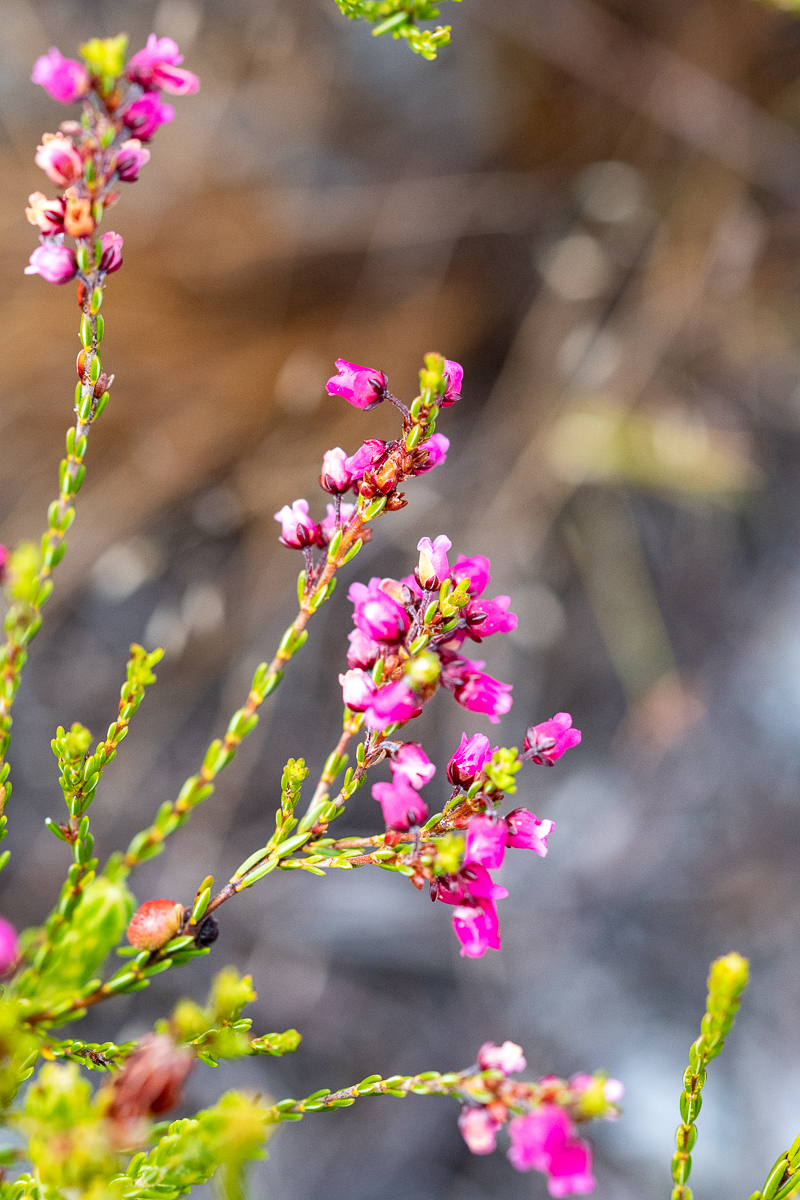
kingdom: Plantae
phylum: Tracheophyta
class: Magnoliopsida
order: Ericales
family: Ericaceae
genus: Erica
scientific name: Erica pulchella
